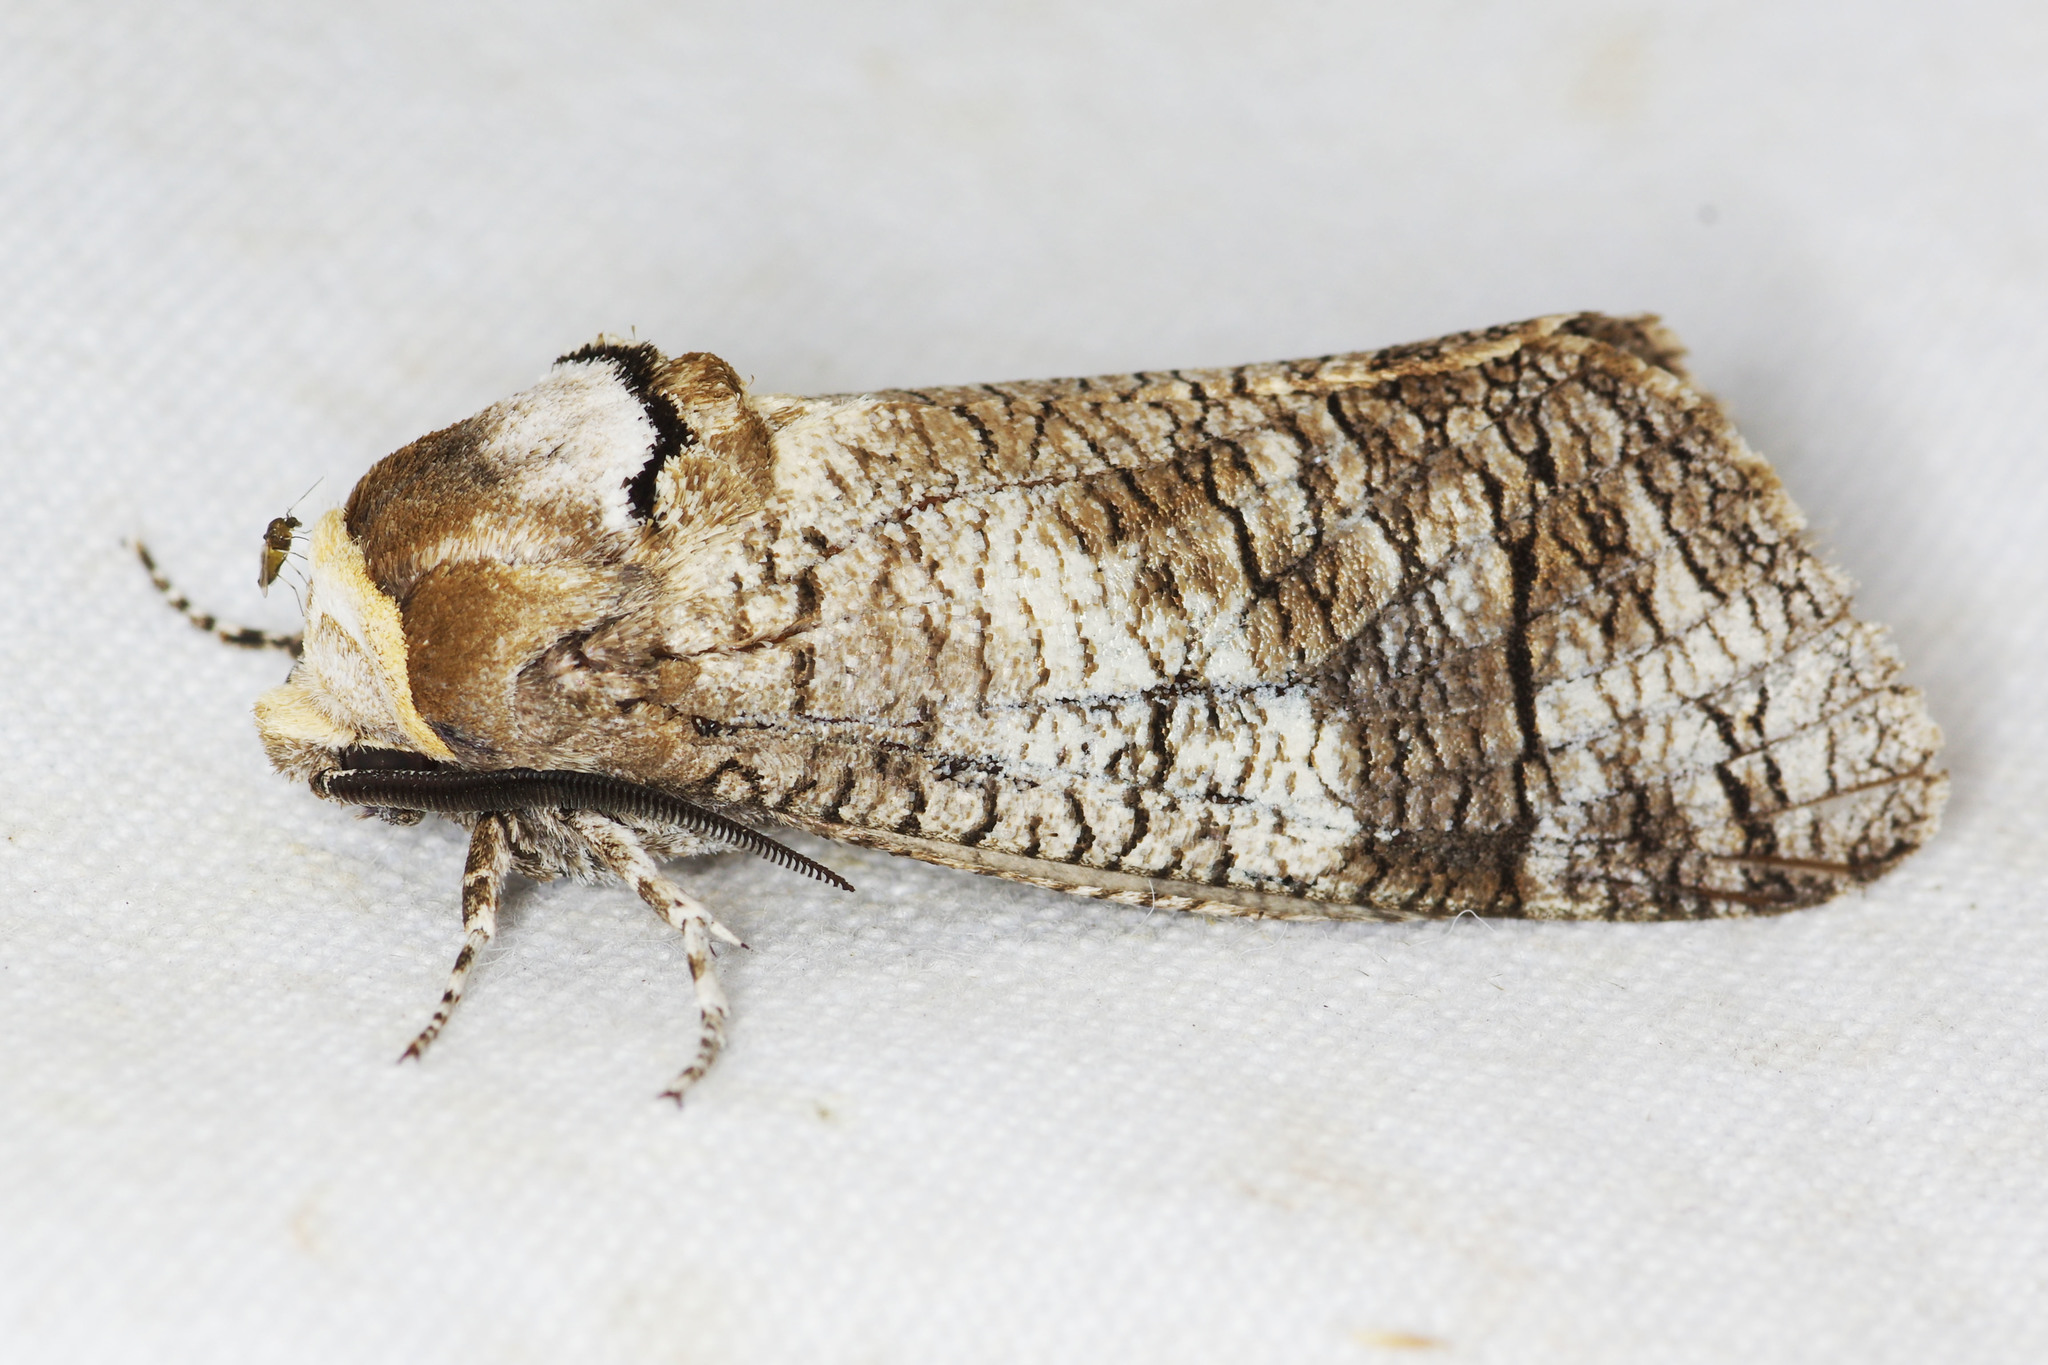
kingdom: Animalia
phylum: Arthropoda
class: Insecta
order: Lepidoptera
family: Cossidae
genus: Cossus
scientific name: Cossus cossus
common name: Goat moth
